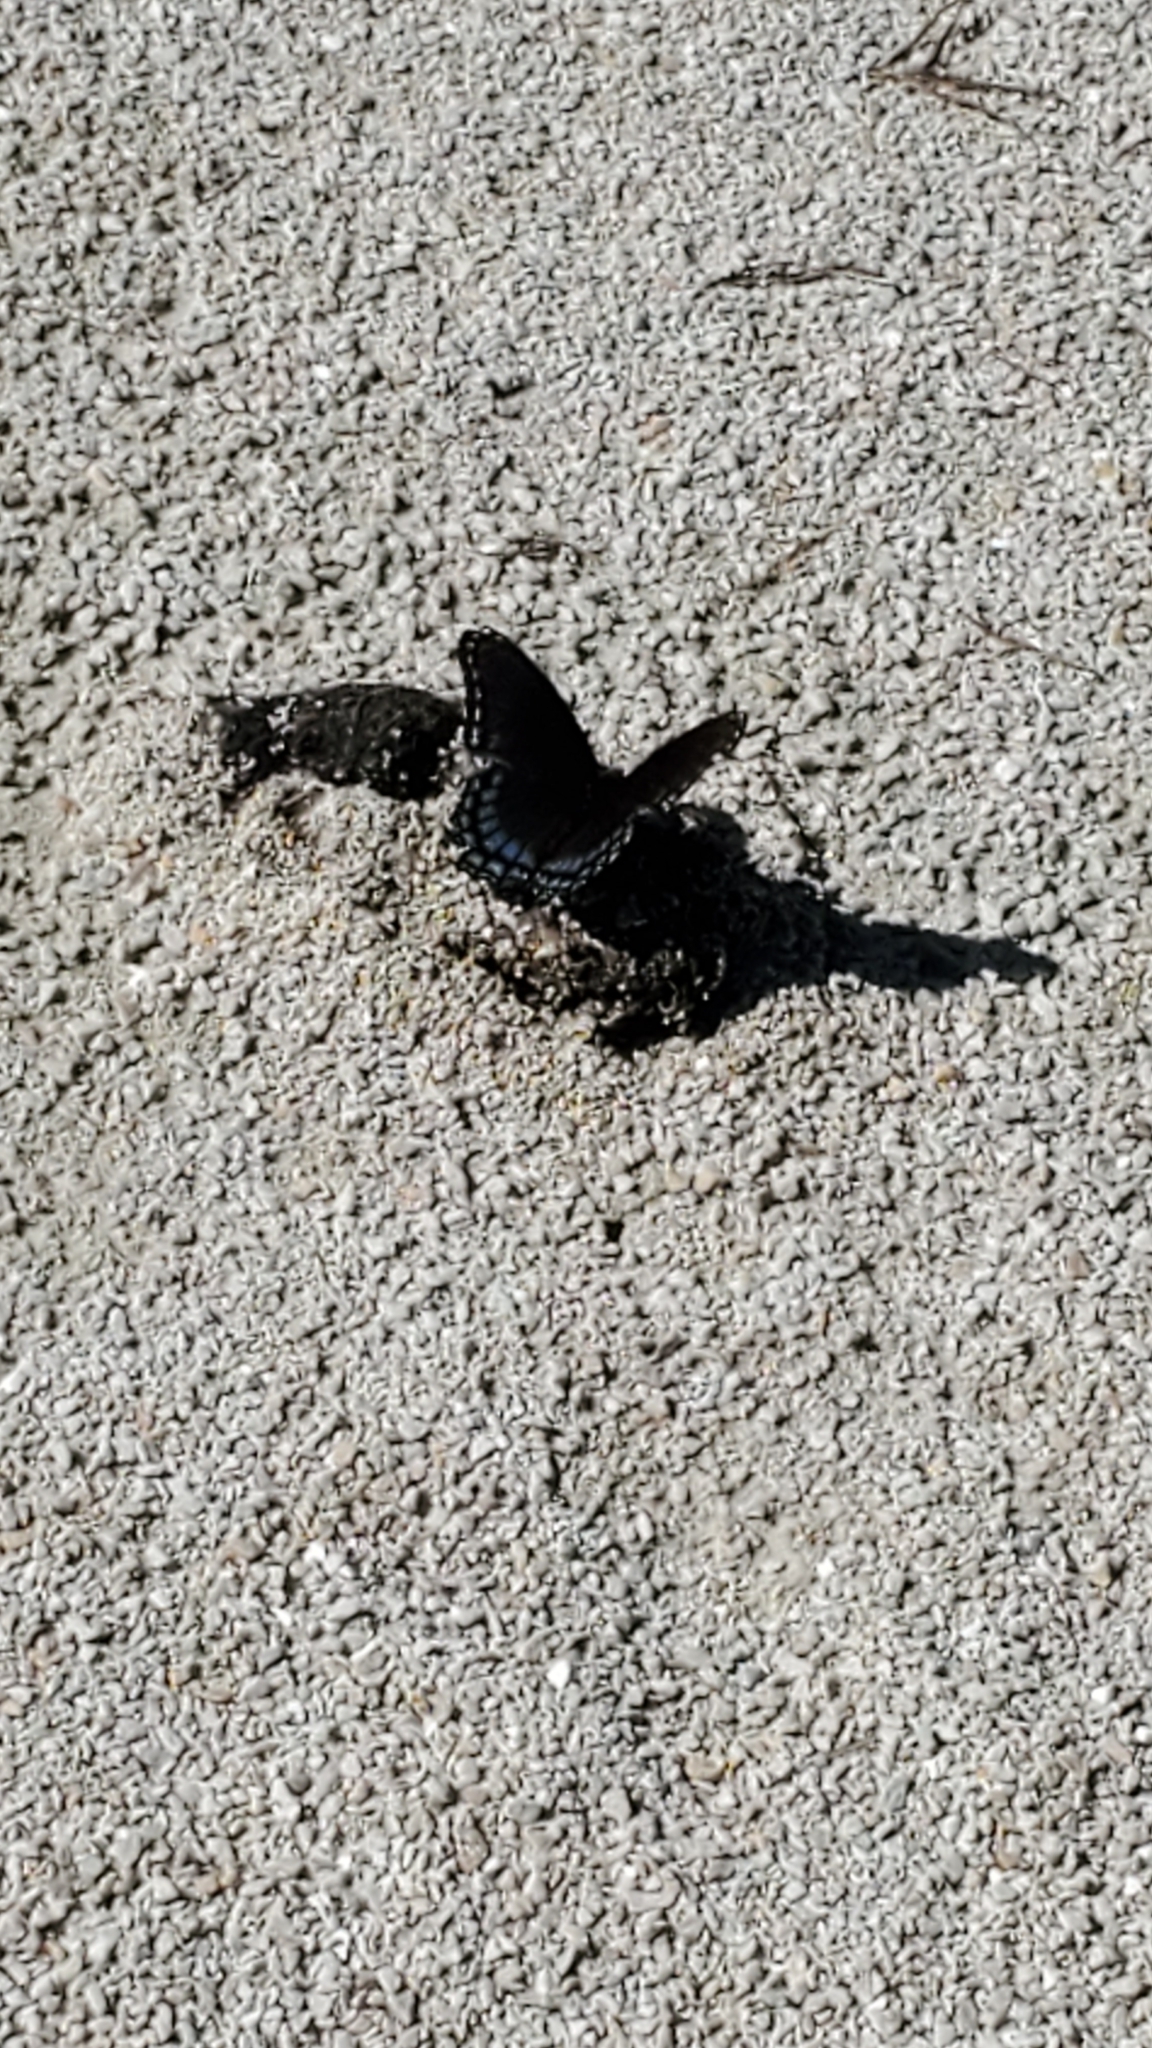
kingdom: Animalia
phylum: Arthropoda
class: Insecta
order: Lepidoptera
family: Nymphalidae
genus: Limenitis
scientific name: Limenitis astyanax
